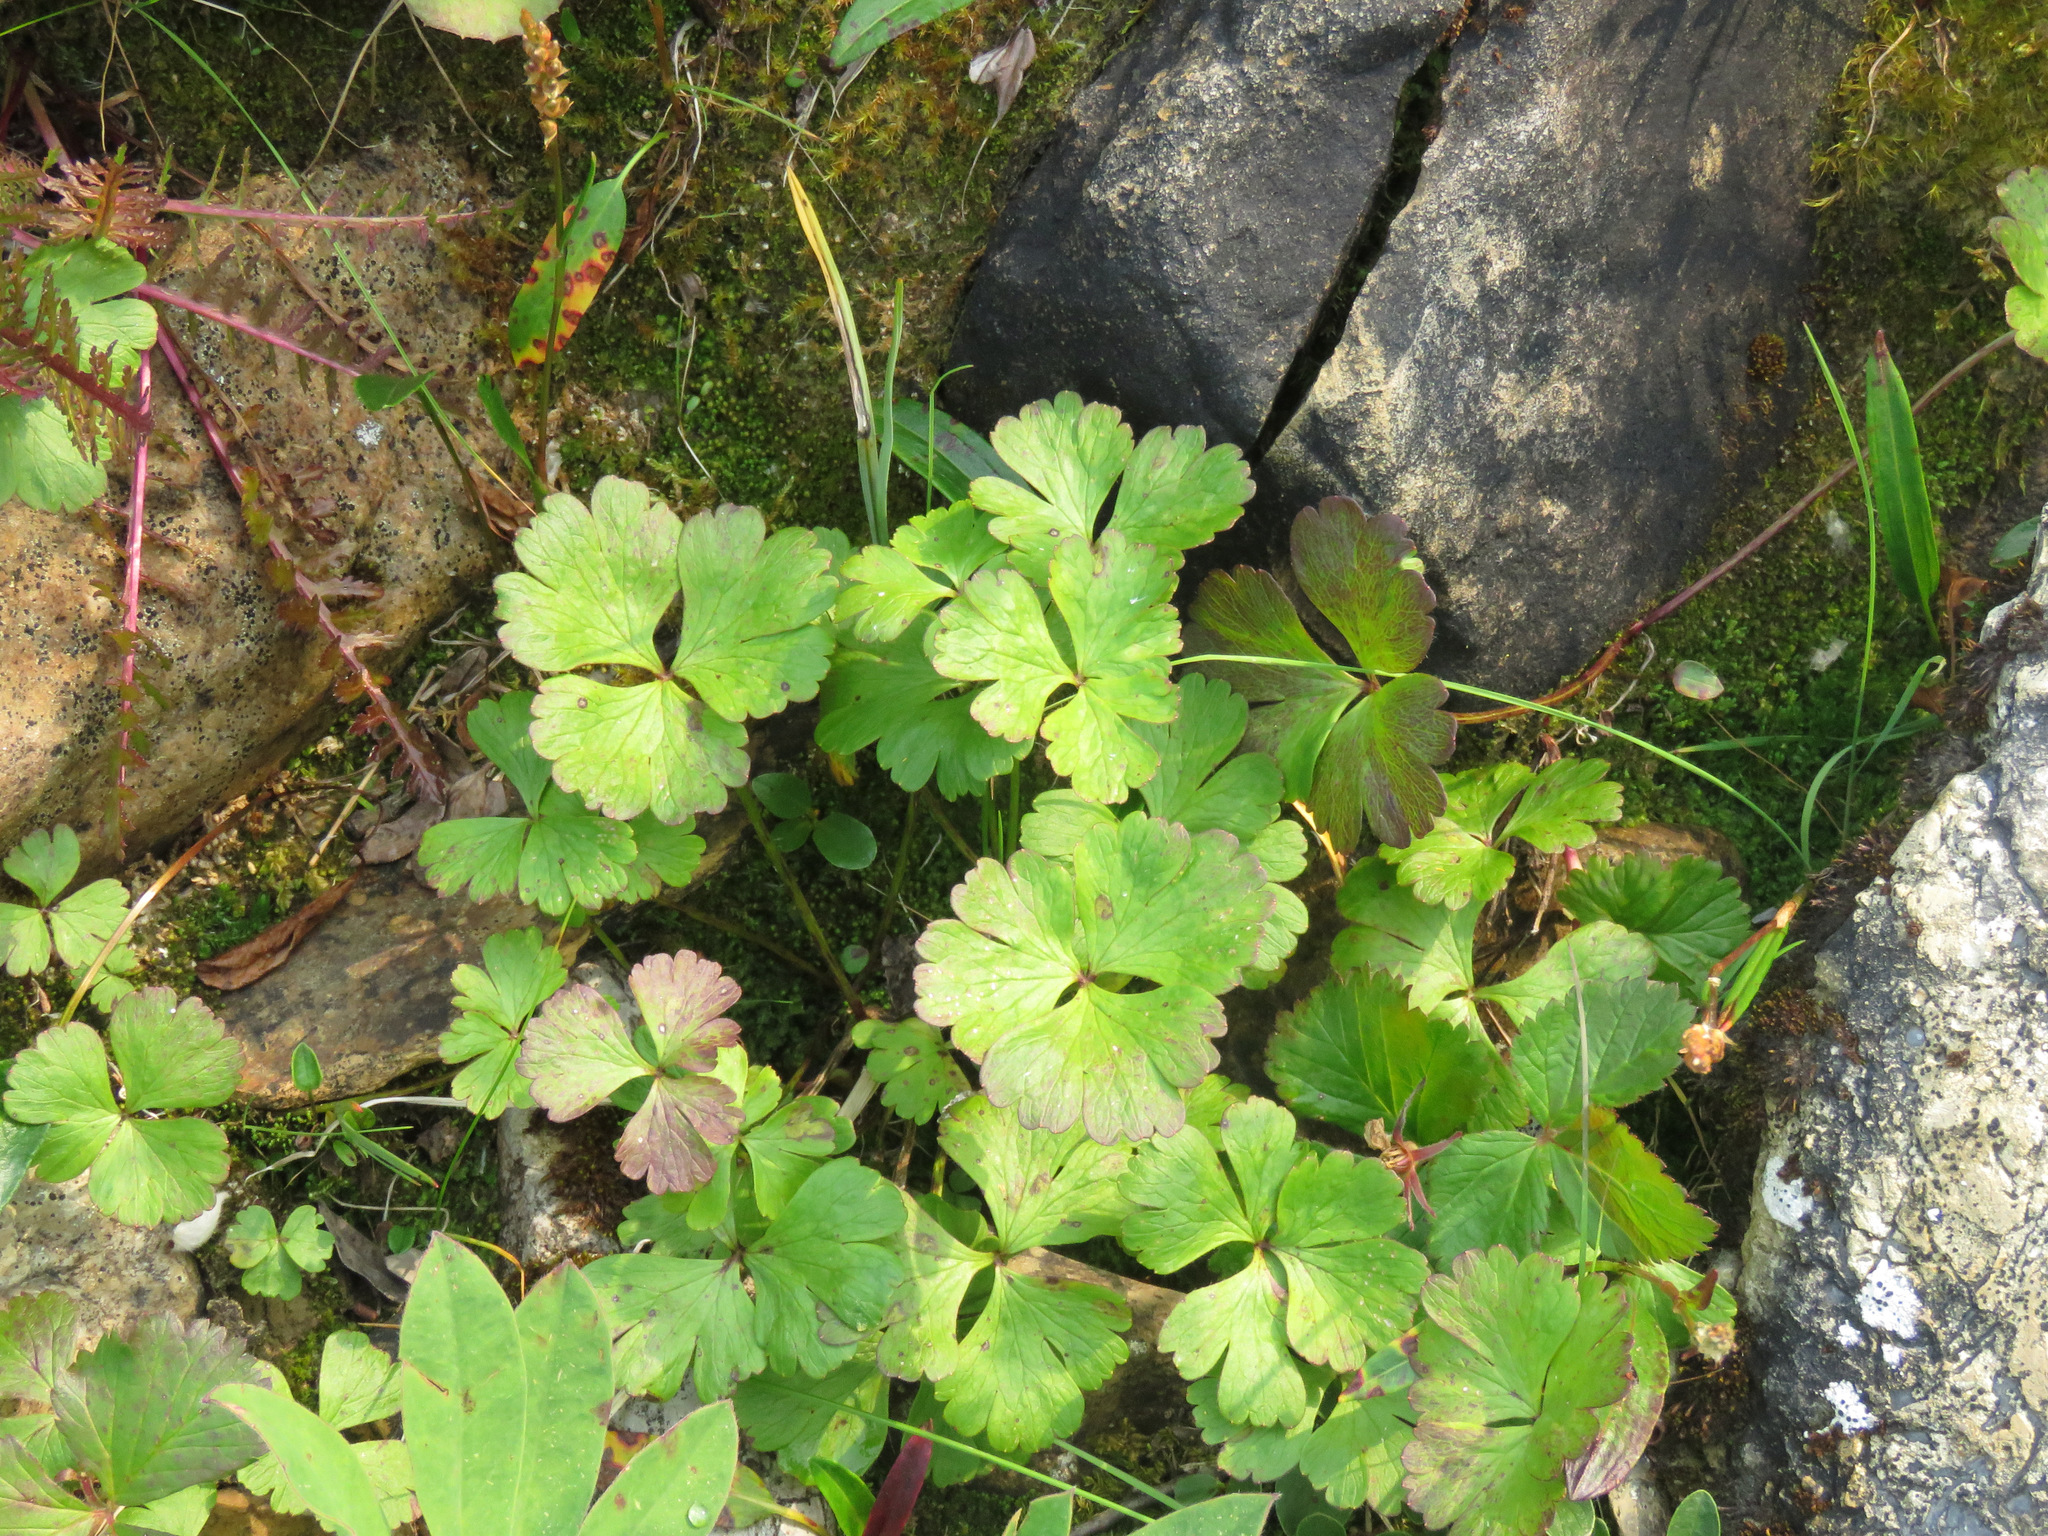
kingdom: Plantae
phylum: Tracheophyta
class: Magnoliopsida
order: Ranunculales
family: Ranunculaceae
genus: Anemone
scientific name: Anemone parviflora
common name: Northern anemone
